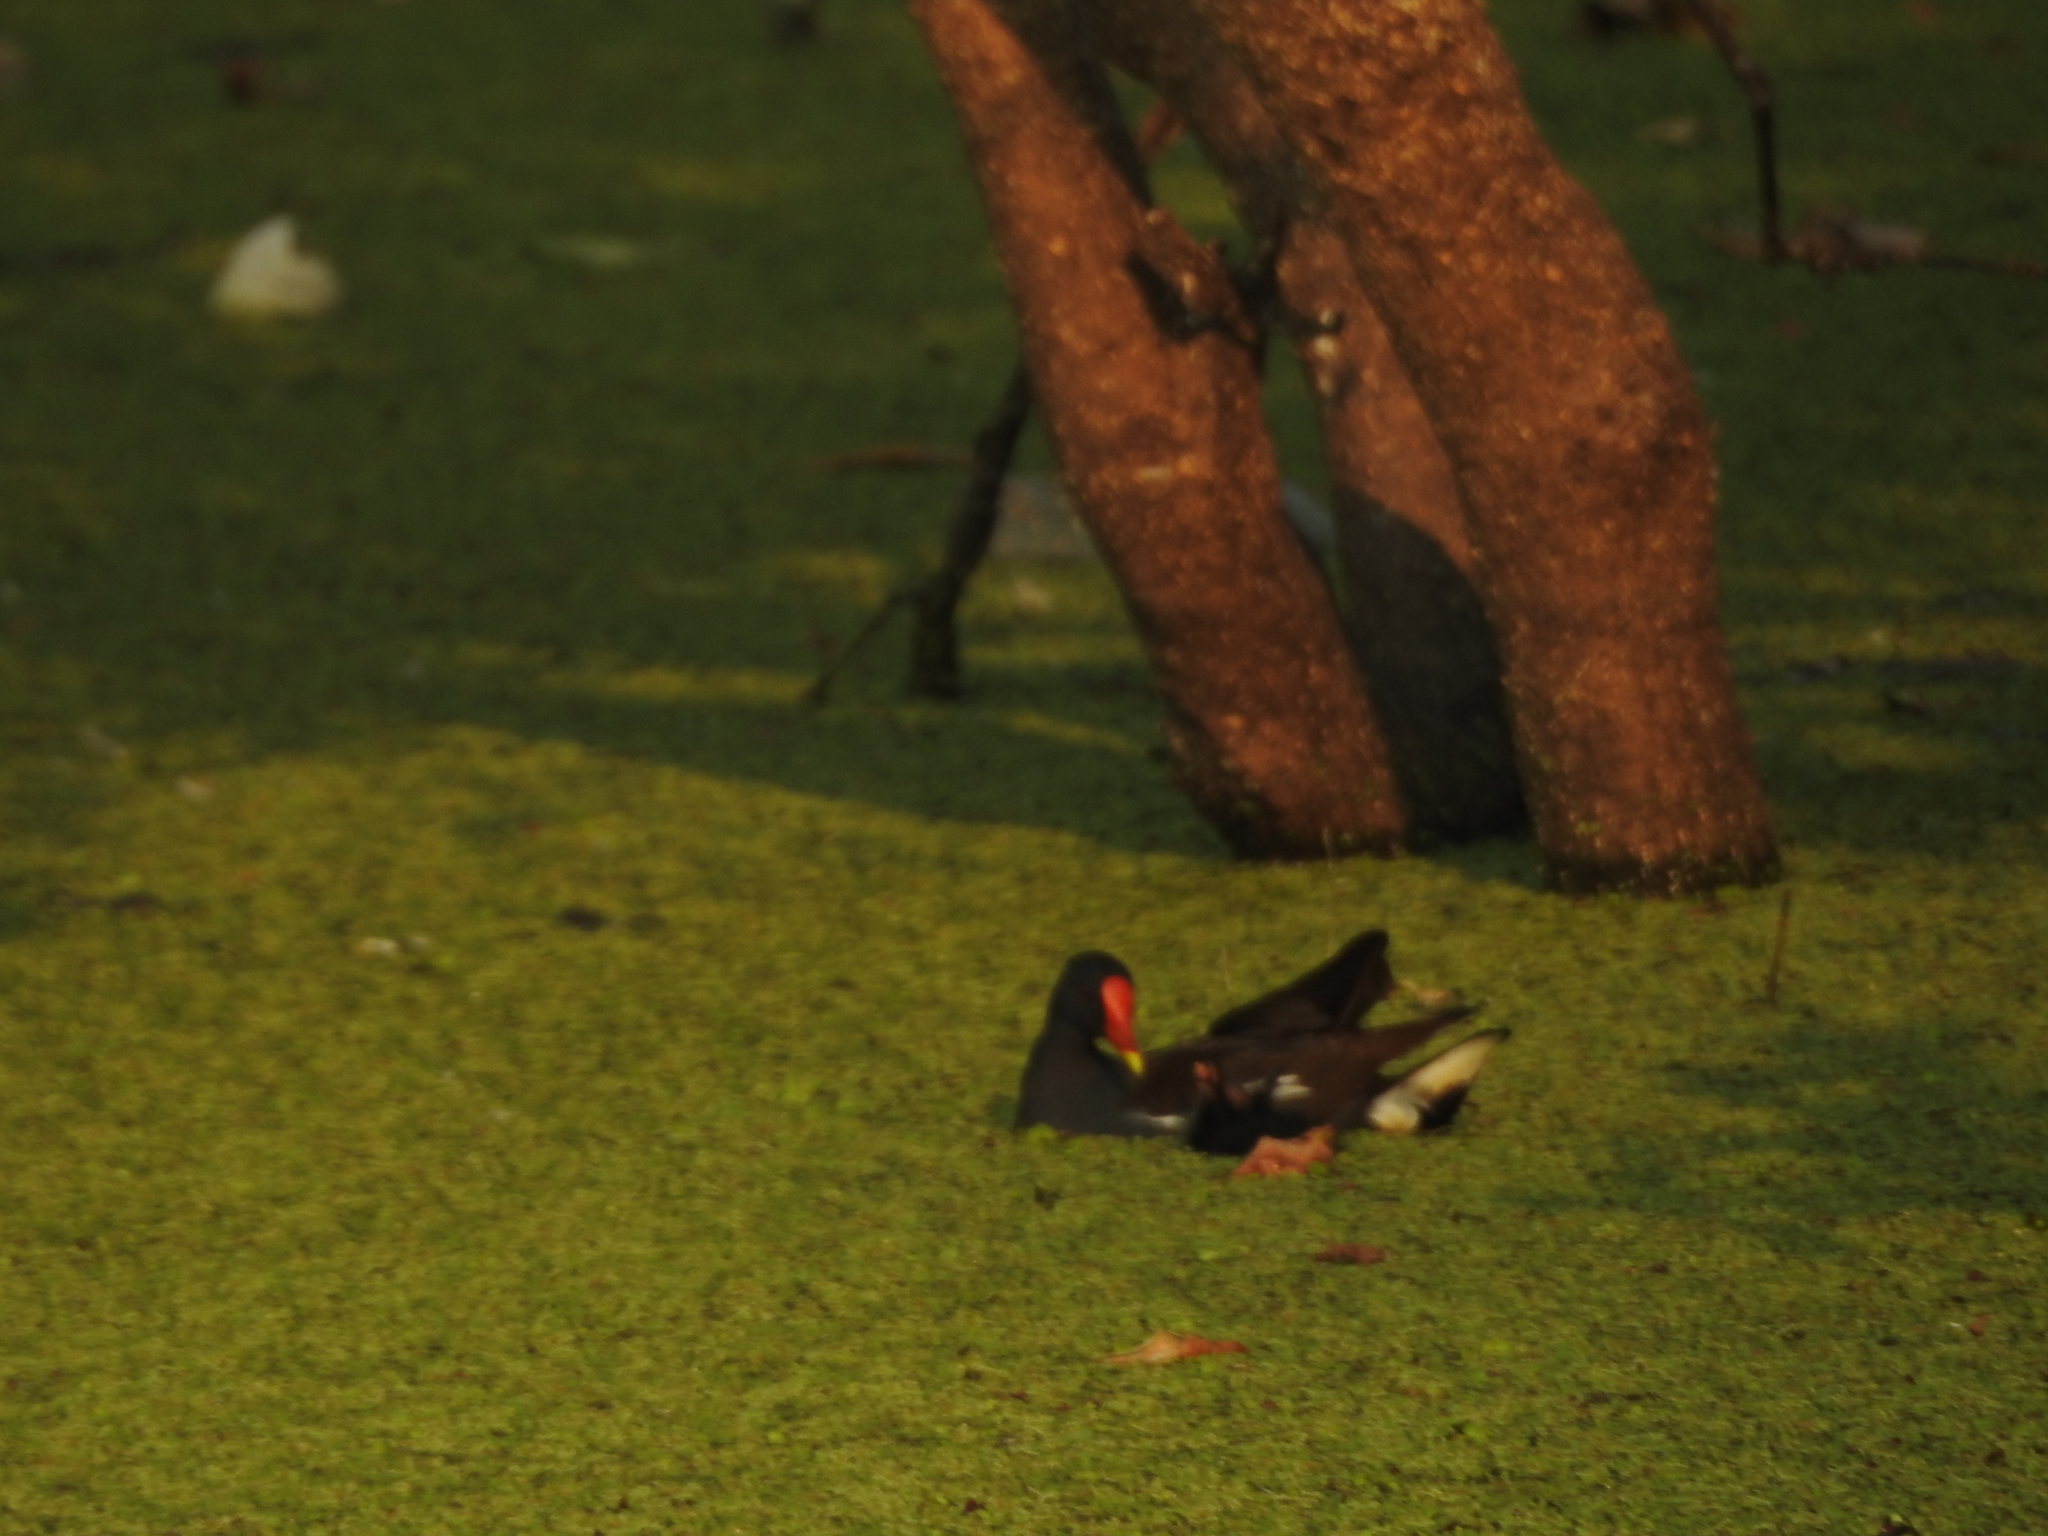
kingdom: Animalia
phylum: Chordata
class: Aves
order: Gruiformes
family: Rallidae
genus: Gallinula
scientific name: Gallinula chloropus
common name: Common moorhen
